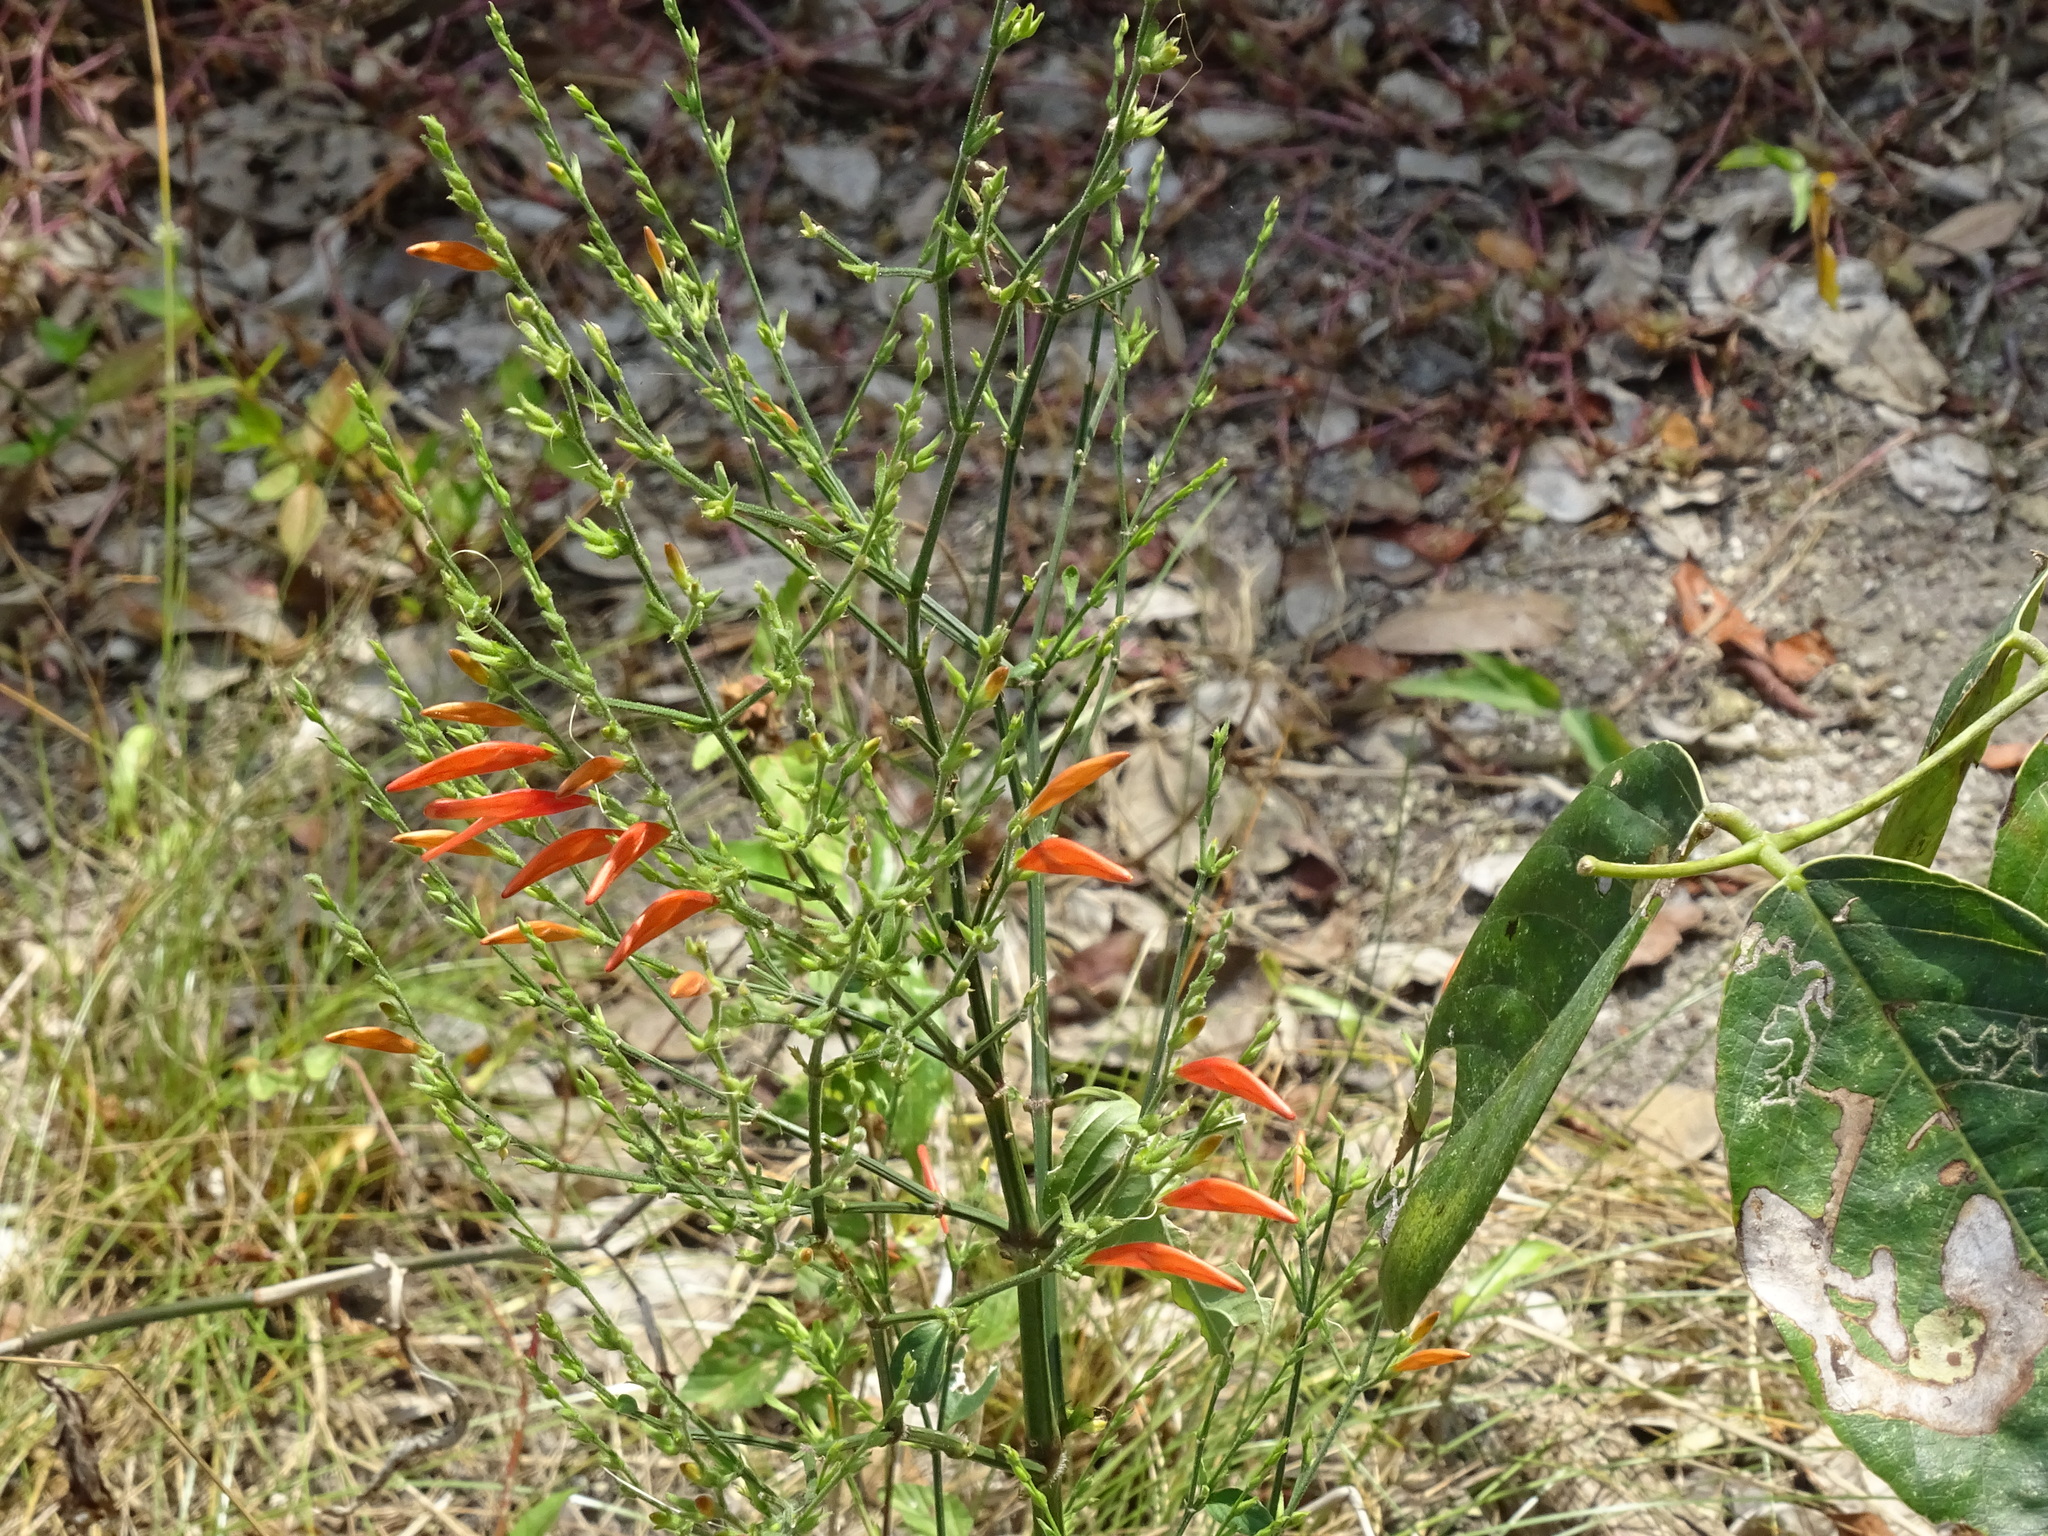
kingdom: Plantae
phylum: Tracheophyta
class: Magnoliopsida
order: Lamiales
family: Acanthaceae
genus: Dicliptera
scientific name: Dicliptera sexangularis
